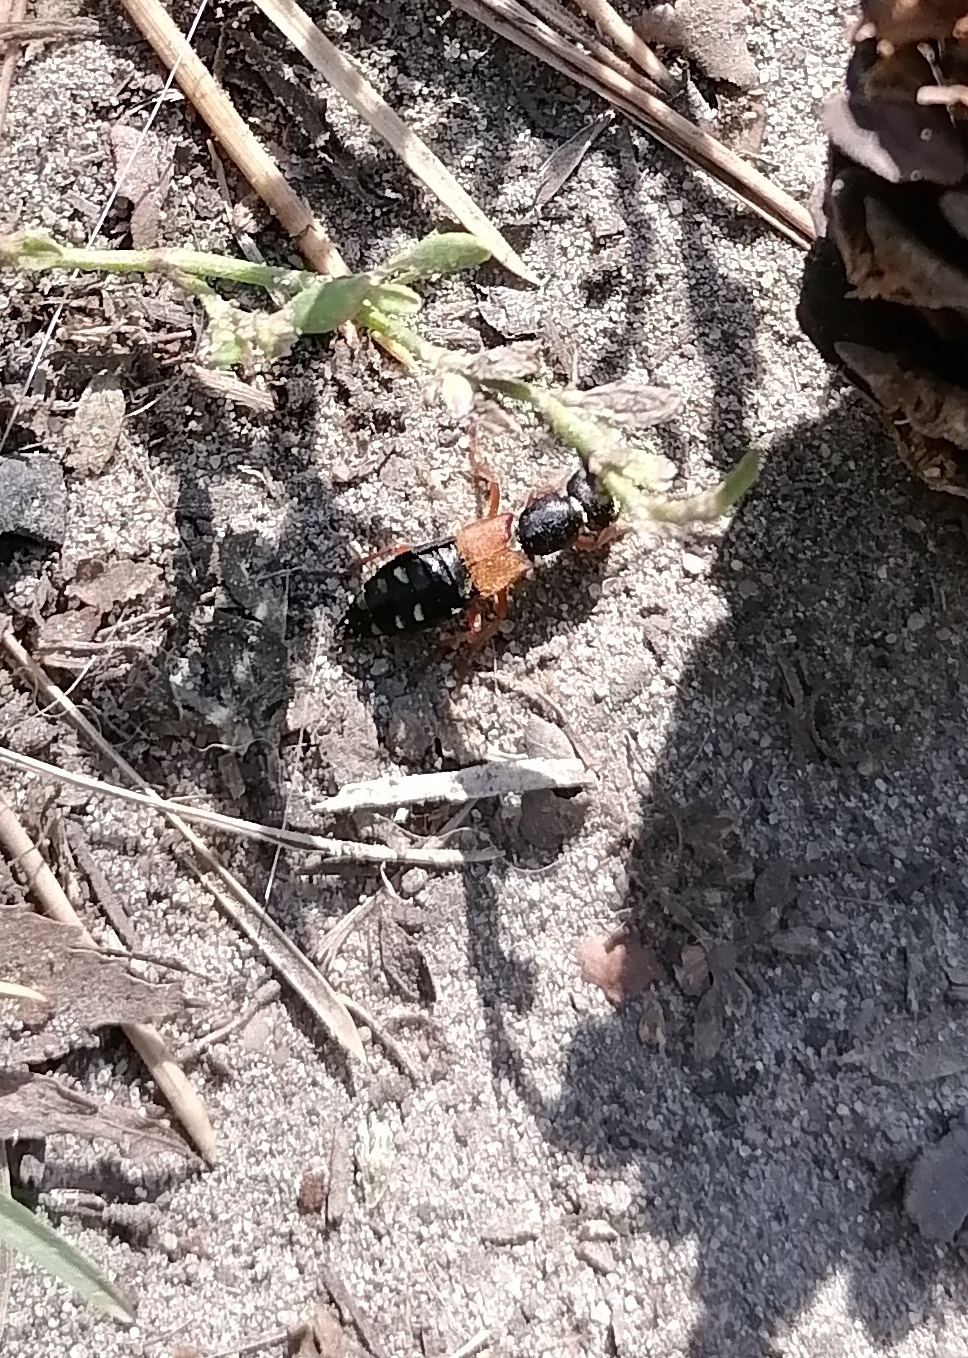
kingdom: Animalia
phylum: Arthropoda
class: Insecta
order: Coleoptera
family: Staphylinidae
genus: Staphylinus
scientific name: Staphylinus erythropterus
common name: Staph beetle
